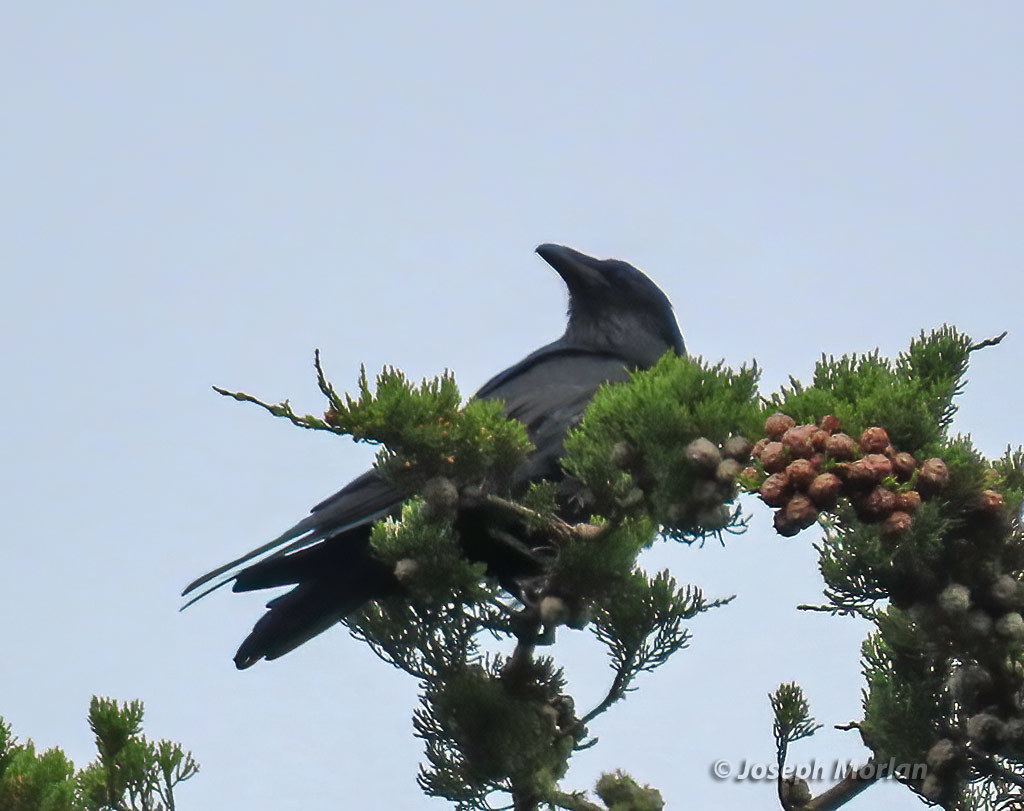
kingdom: Animalia
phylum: Chordata
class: Aves
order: Passeriformes
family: Corvidae
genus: Corvus
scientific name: Corvus corax
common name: Common raven
